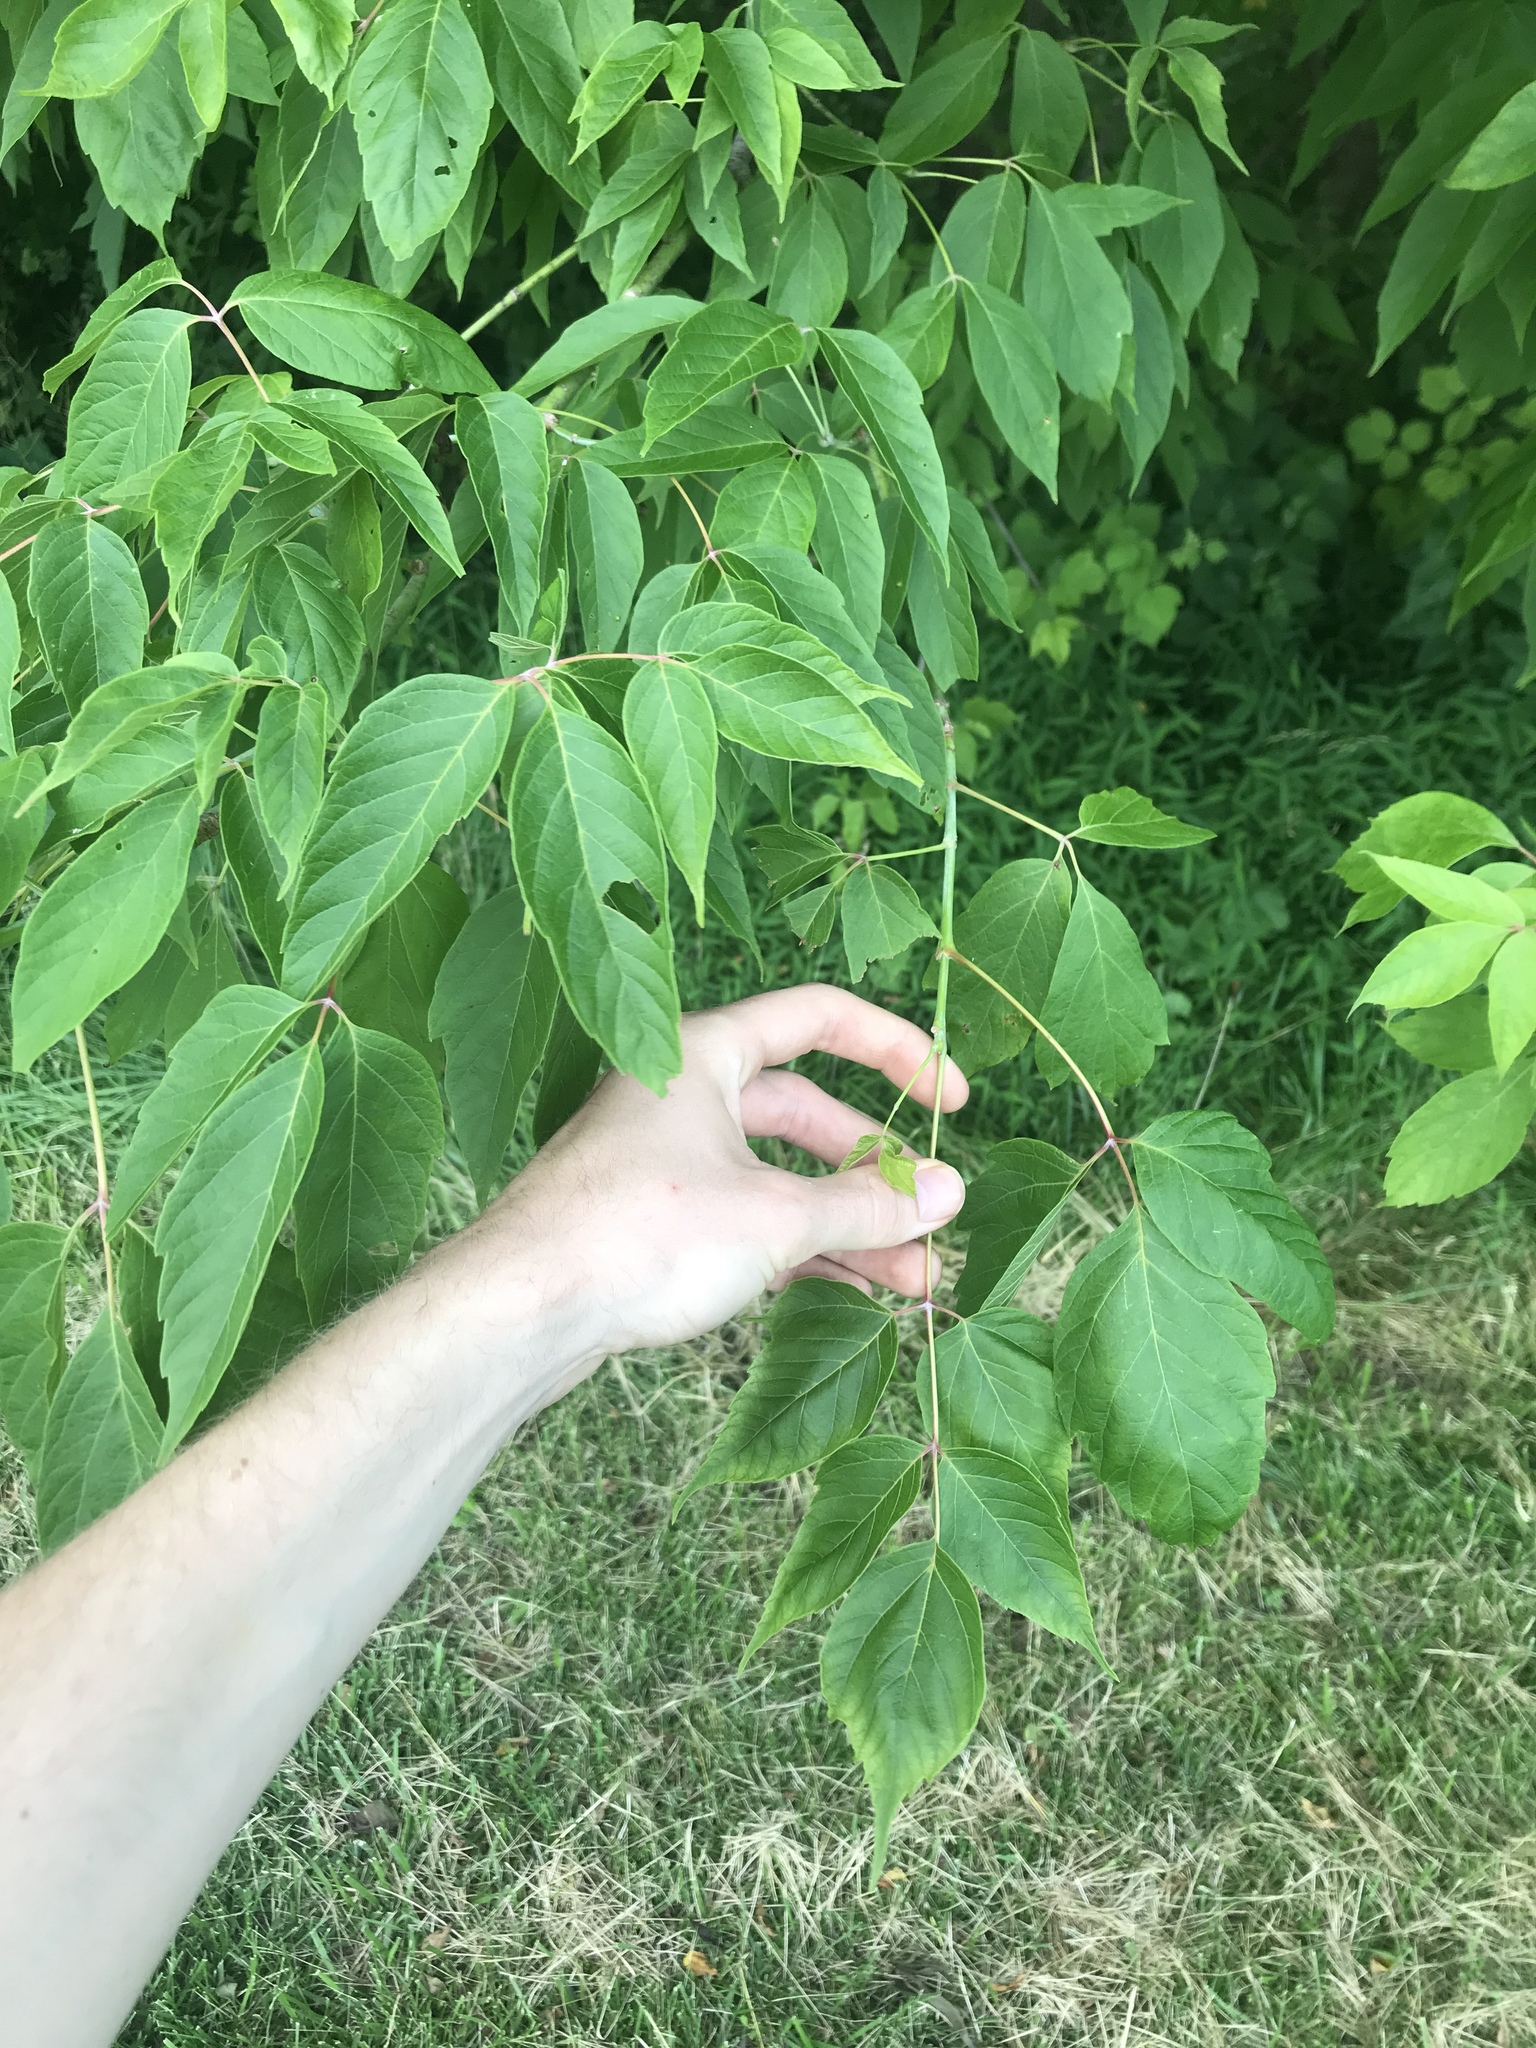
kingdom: Plantae
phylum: Tracheophyta
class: Magnoliopsida
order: Sapindales
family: Sapindaceae
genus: Acer
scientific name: Acer negundo
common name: Ashleaf maple
